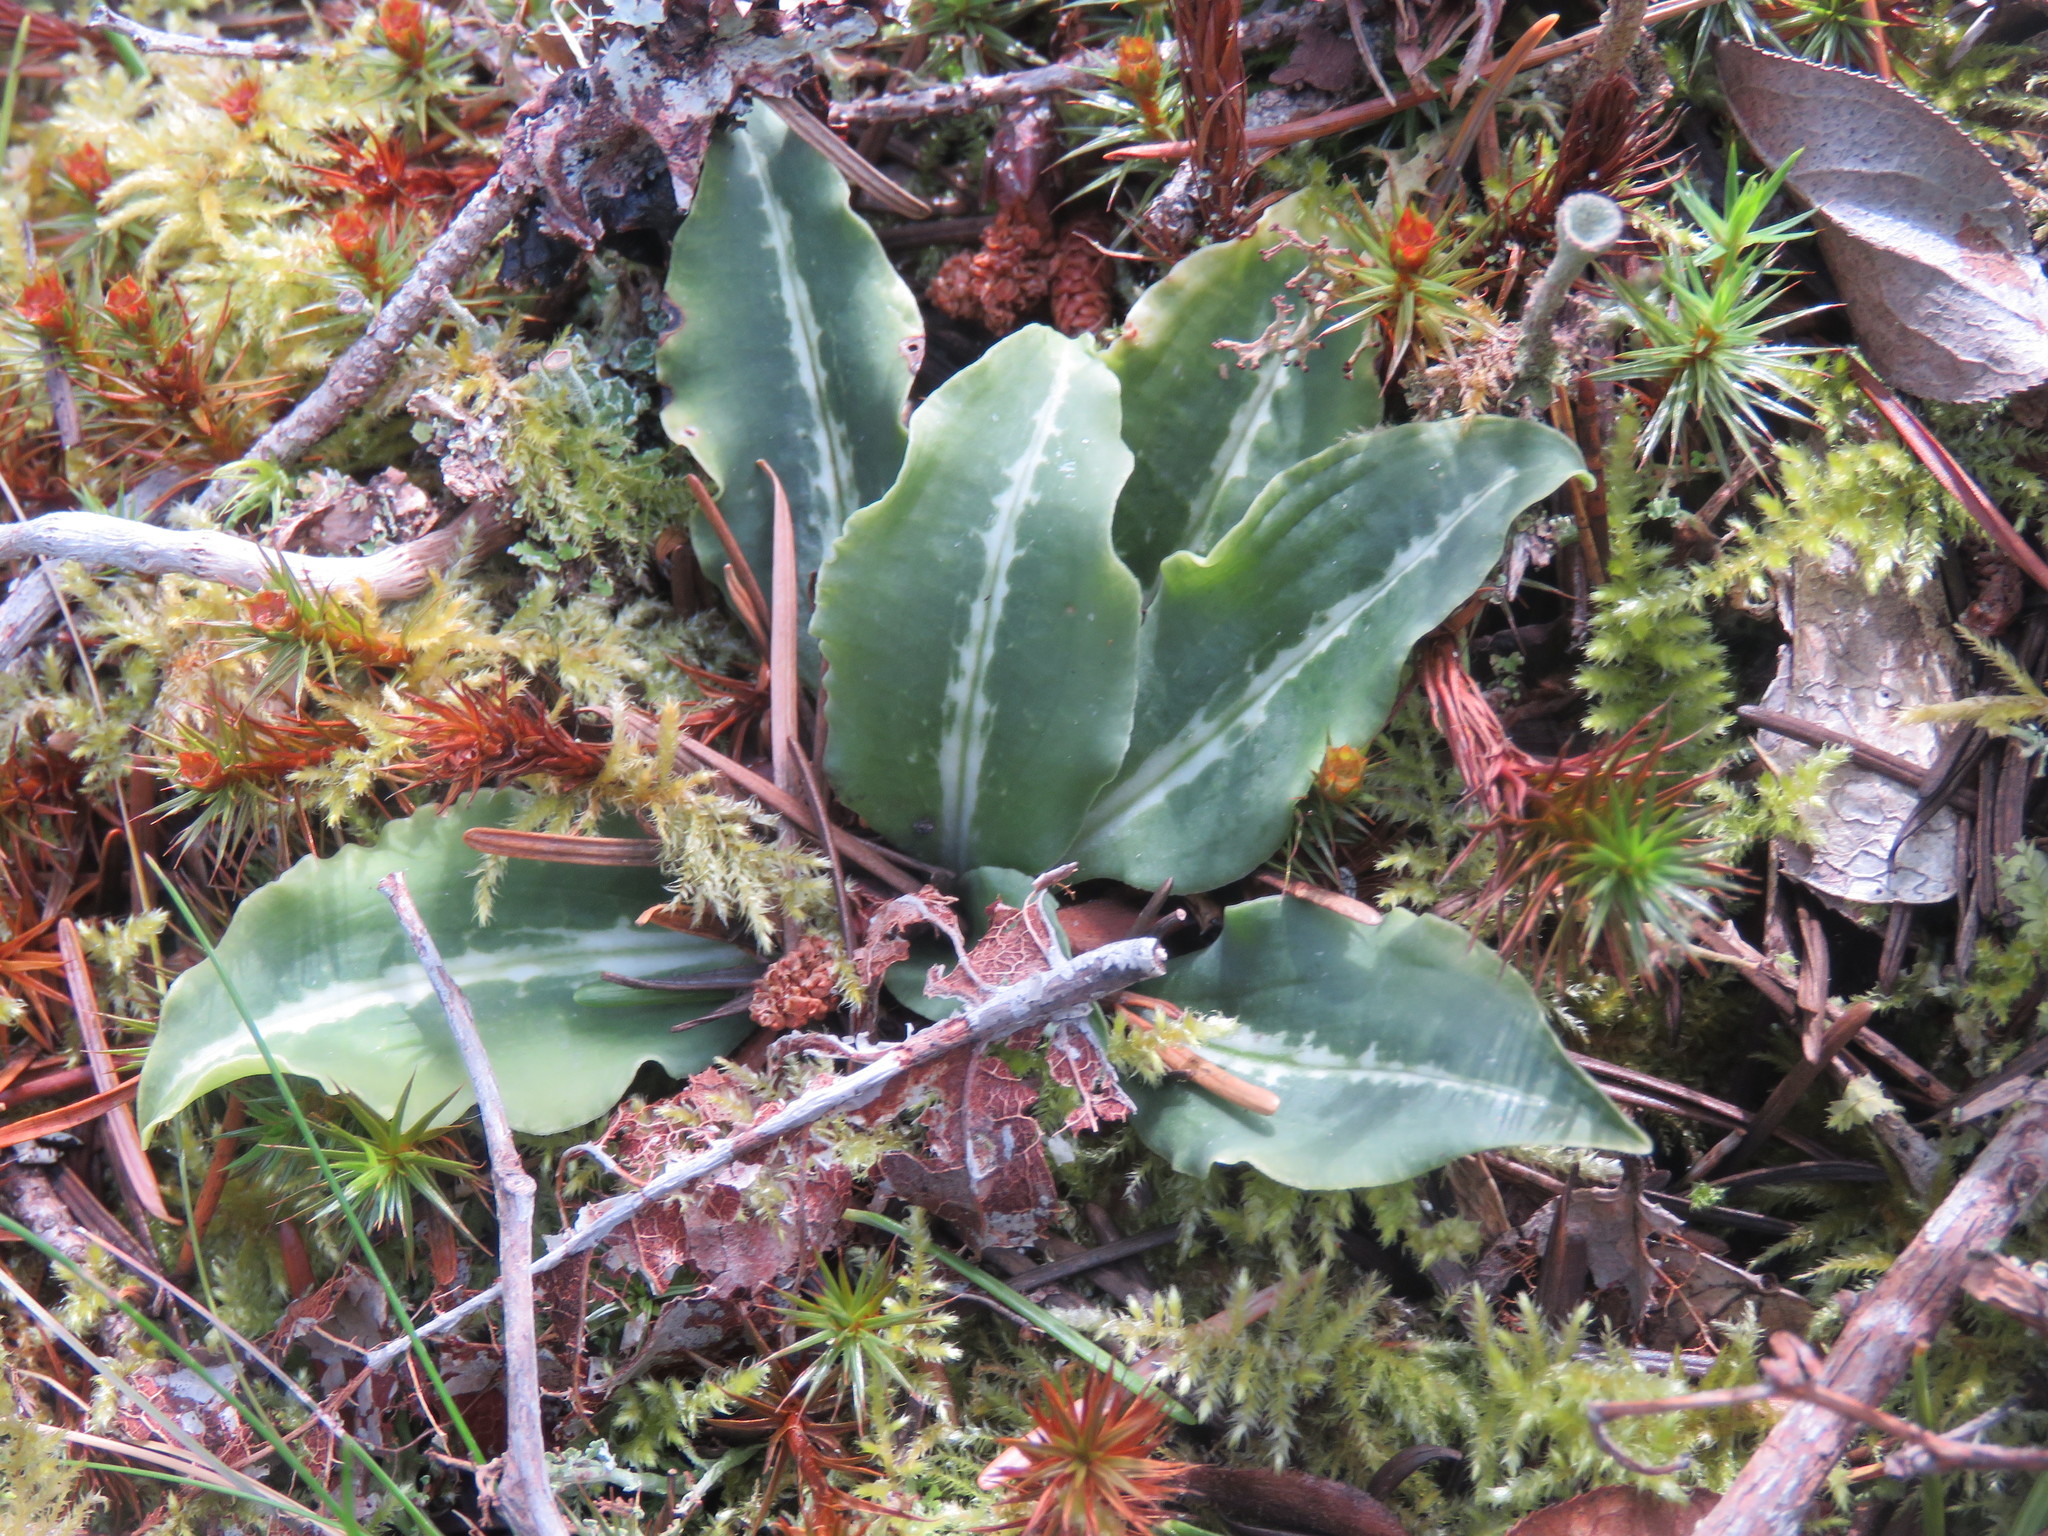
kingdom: Plantae
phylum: Tracheophyta
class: Liliopsida
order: Asparagales
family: Orchidaceae
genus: Goodyera
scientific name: Goodyera oblongifolia
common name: Giant rattlesnake-plantain
